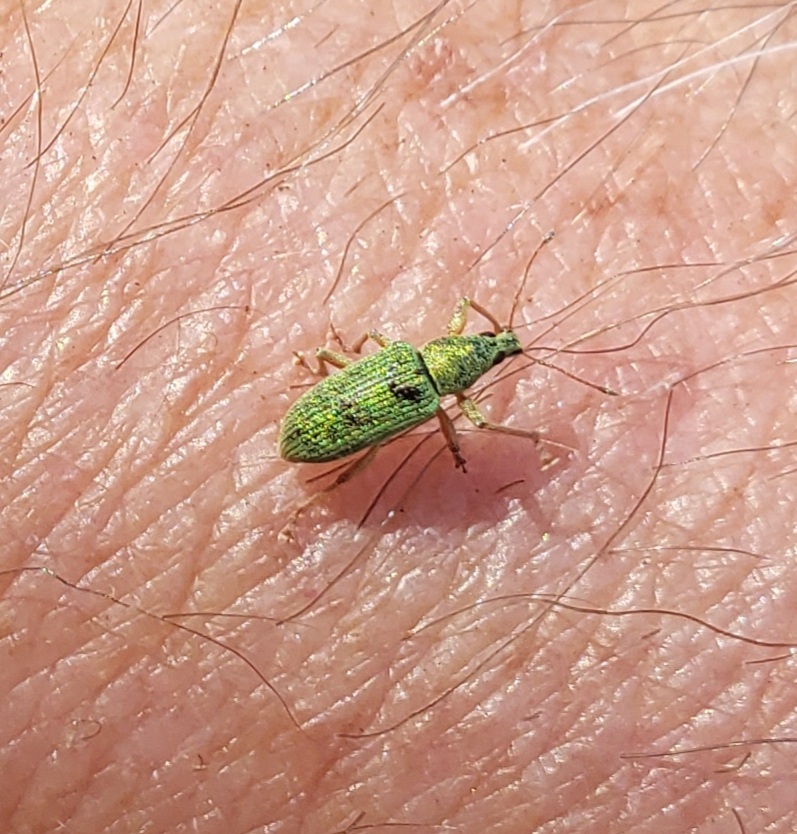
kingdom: Animalia
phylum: Arthropoda
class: Insecta
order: Coleoptera
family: Curculionidae
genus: Polydrusus
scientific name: Polydrusus formosus
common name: Weevil
